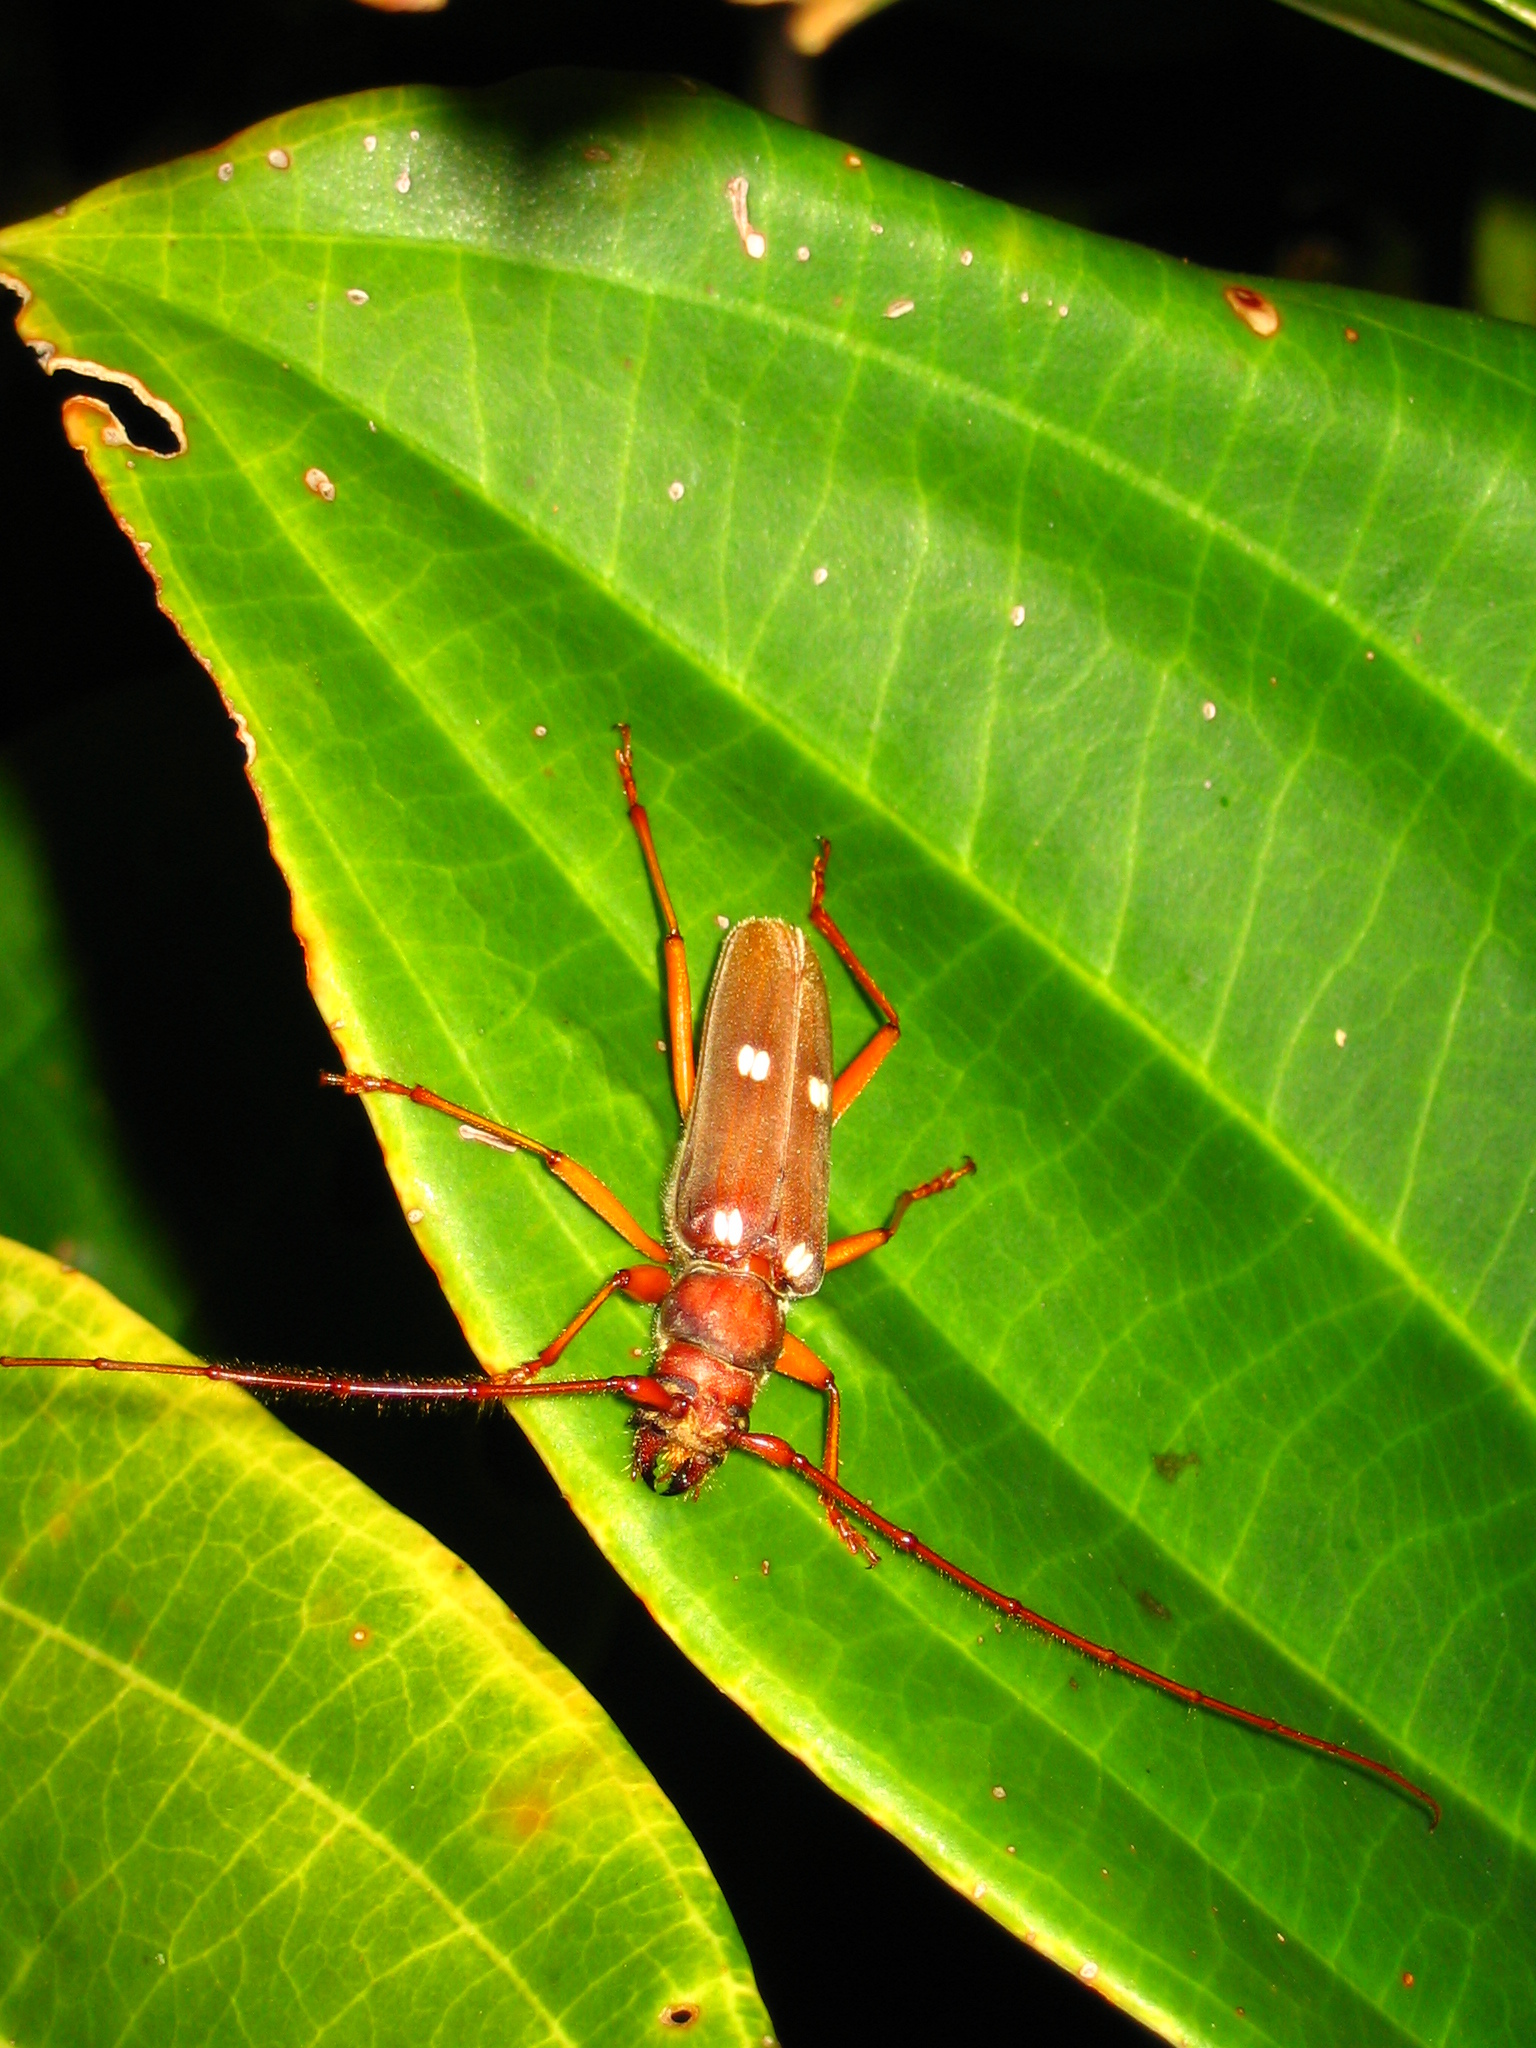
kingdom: Animalia
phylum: Arthropoda
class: Insecta
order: Coleoptera
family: Cerambycidae
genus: Eburiomorpha
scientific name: Eburiomorpha guttata
